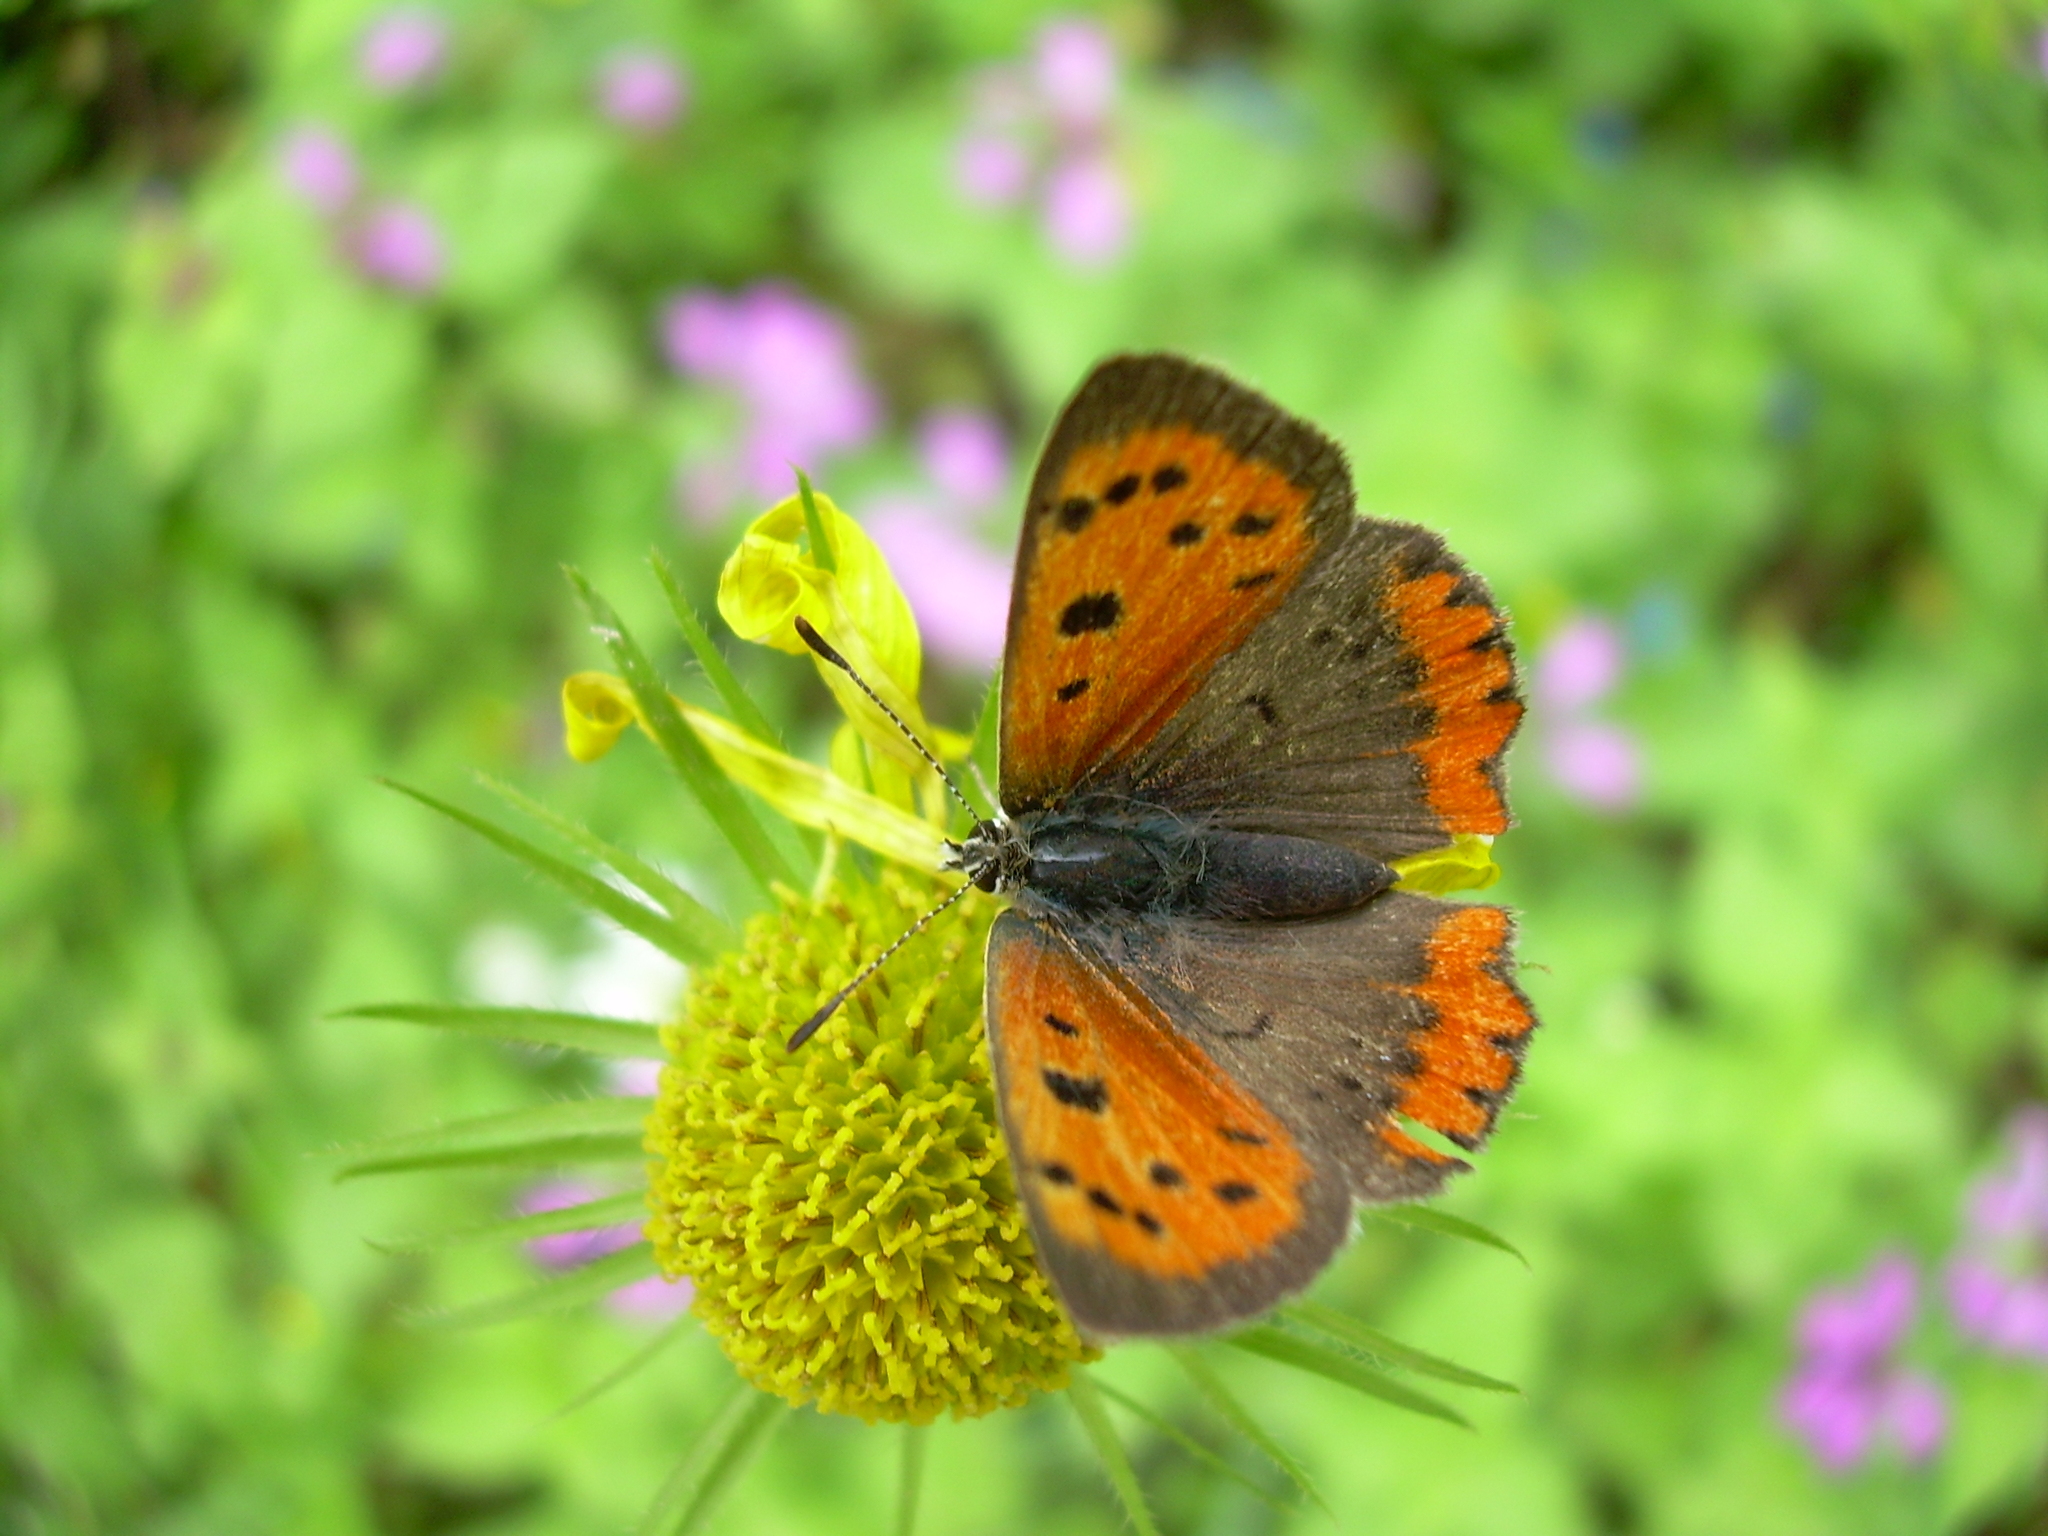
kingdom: Animalia
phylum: Arthropoda
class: Insecta
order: Lepidoptera
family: Lycaenidae
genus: Lycaena
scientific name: Lycaena phlaeas
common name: Small copper
